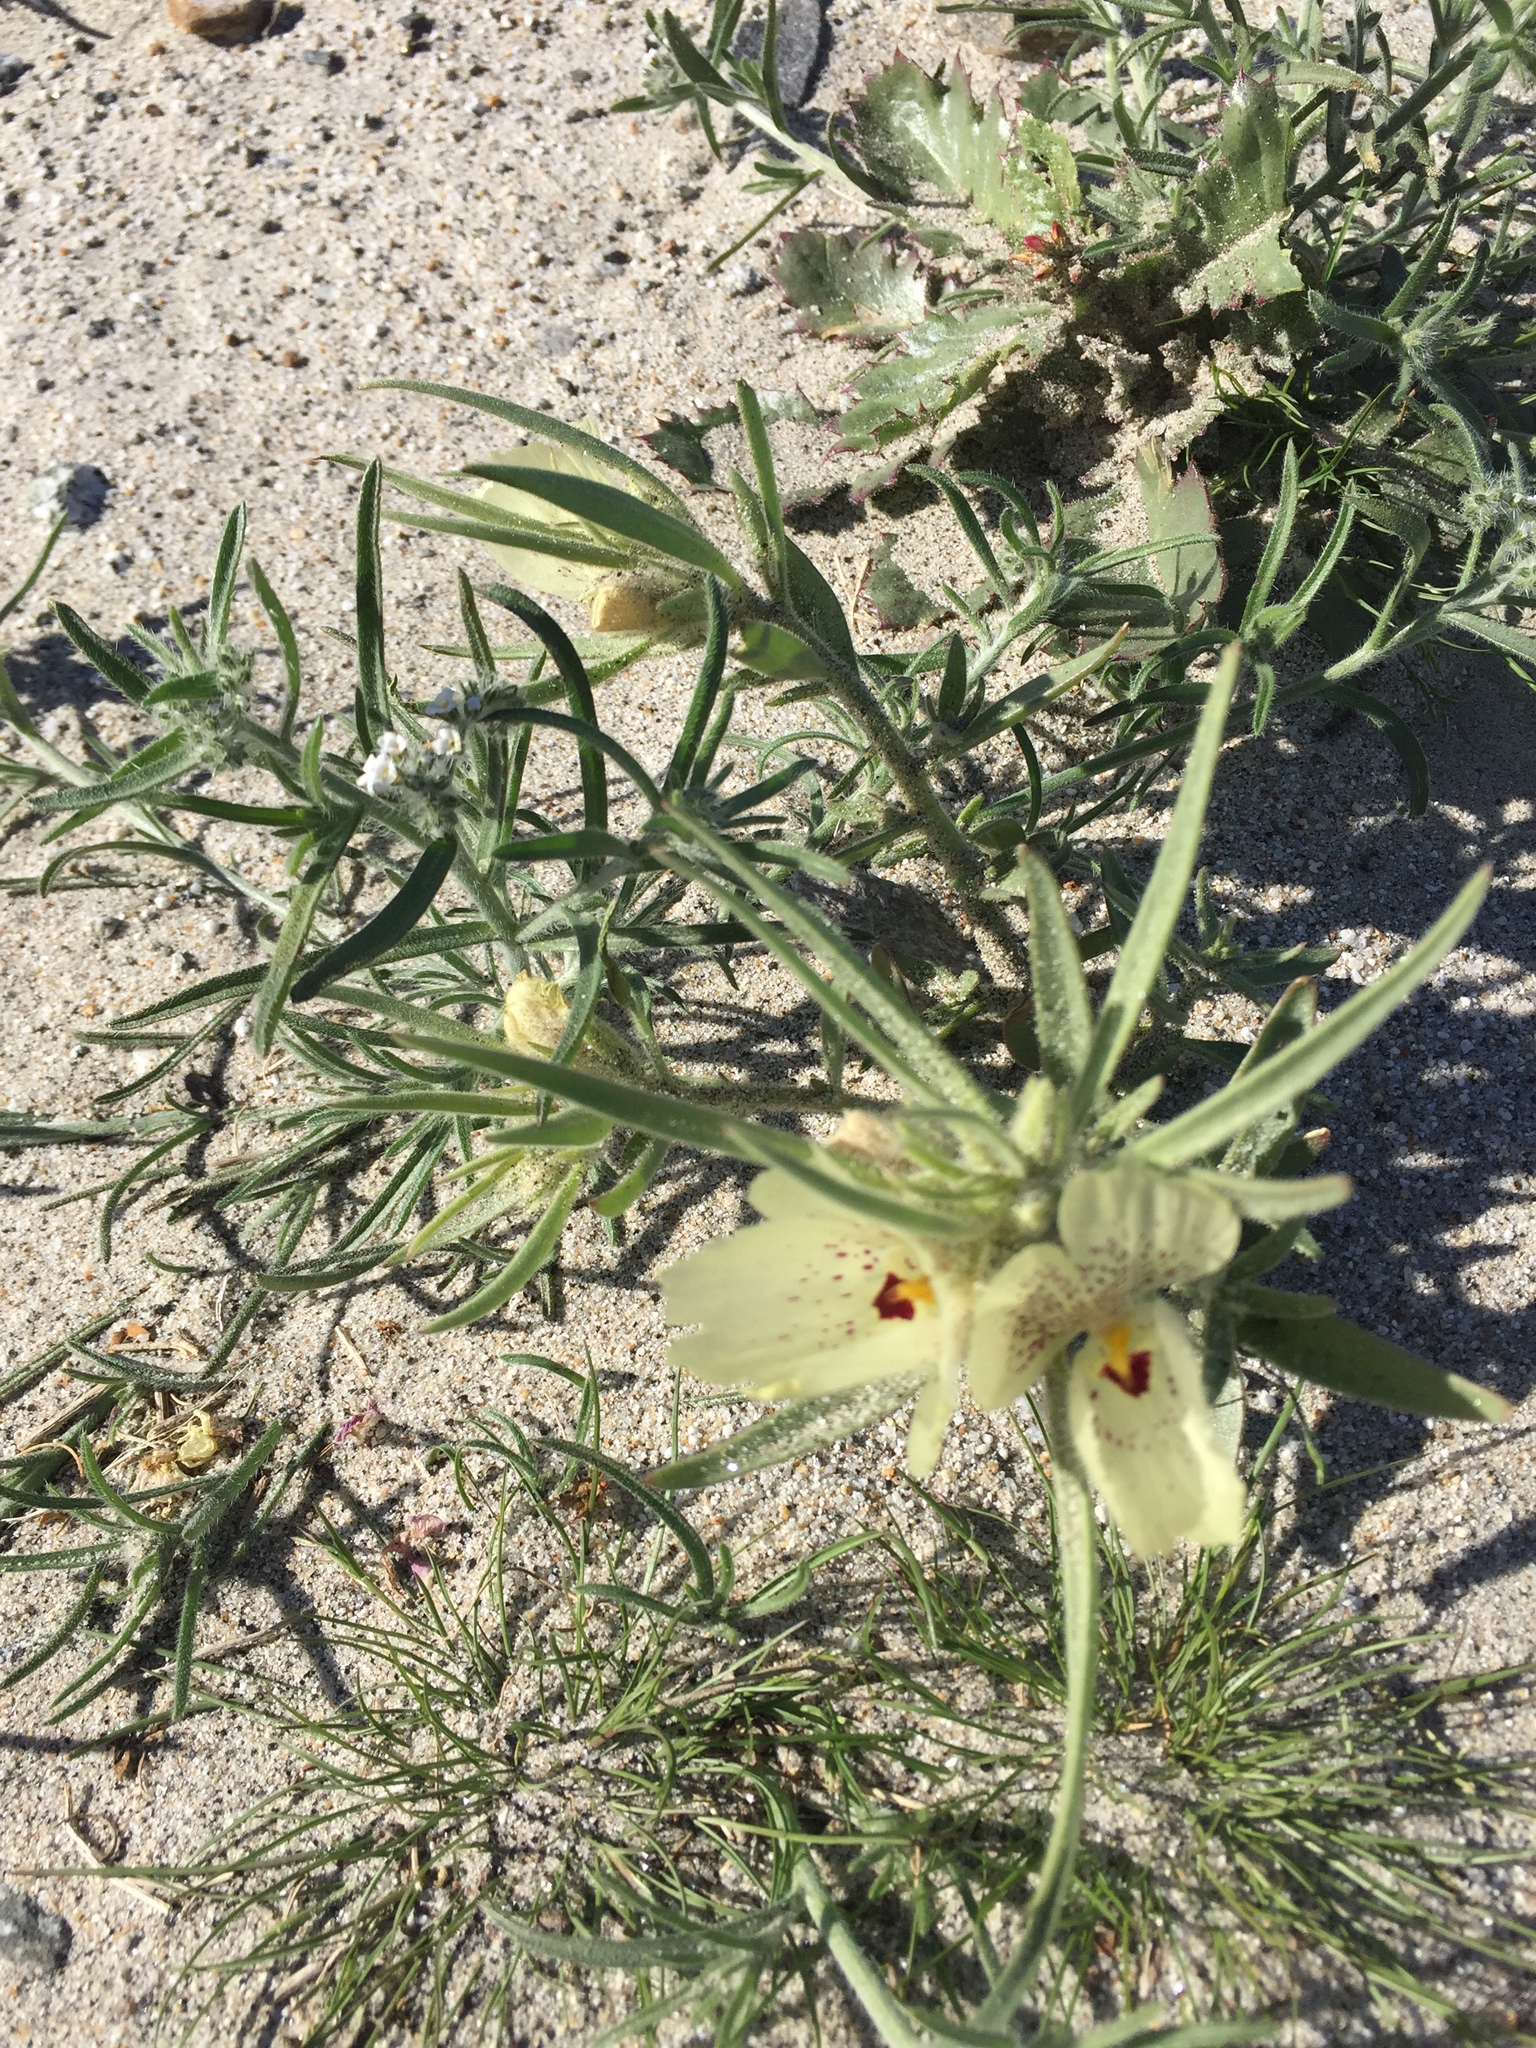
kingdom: Plantae
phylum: Tracheophyta
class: Magnoliopsida
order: Lamiales
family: Plantaginaceae
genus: Mohavea
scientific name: Mohavea confertiflora
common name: Ghost flower
